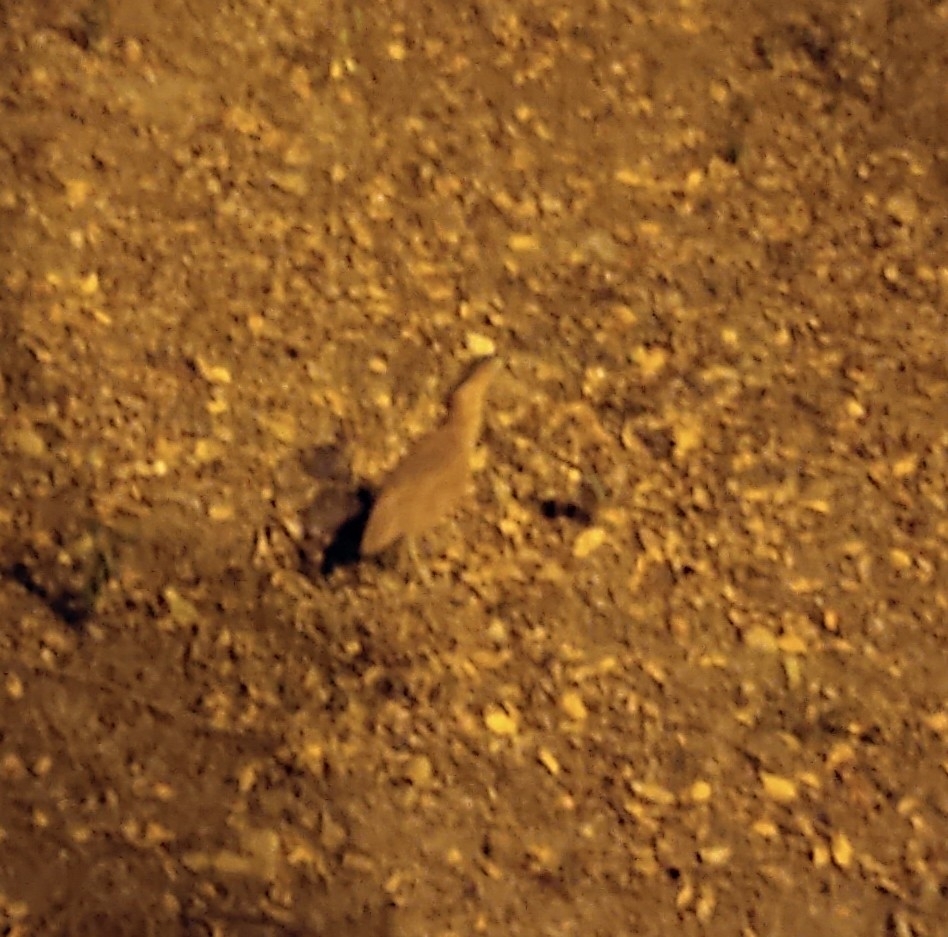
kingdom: Animalia
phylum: Chordata
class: Aves
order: Pelecaniformes
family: Ardeidae
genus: Gorsachius
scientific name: Gorsachius melanolophus
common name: Malayan night heron
